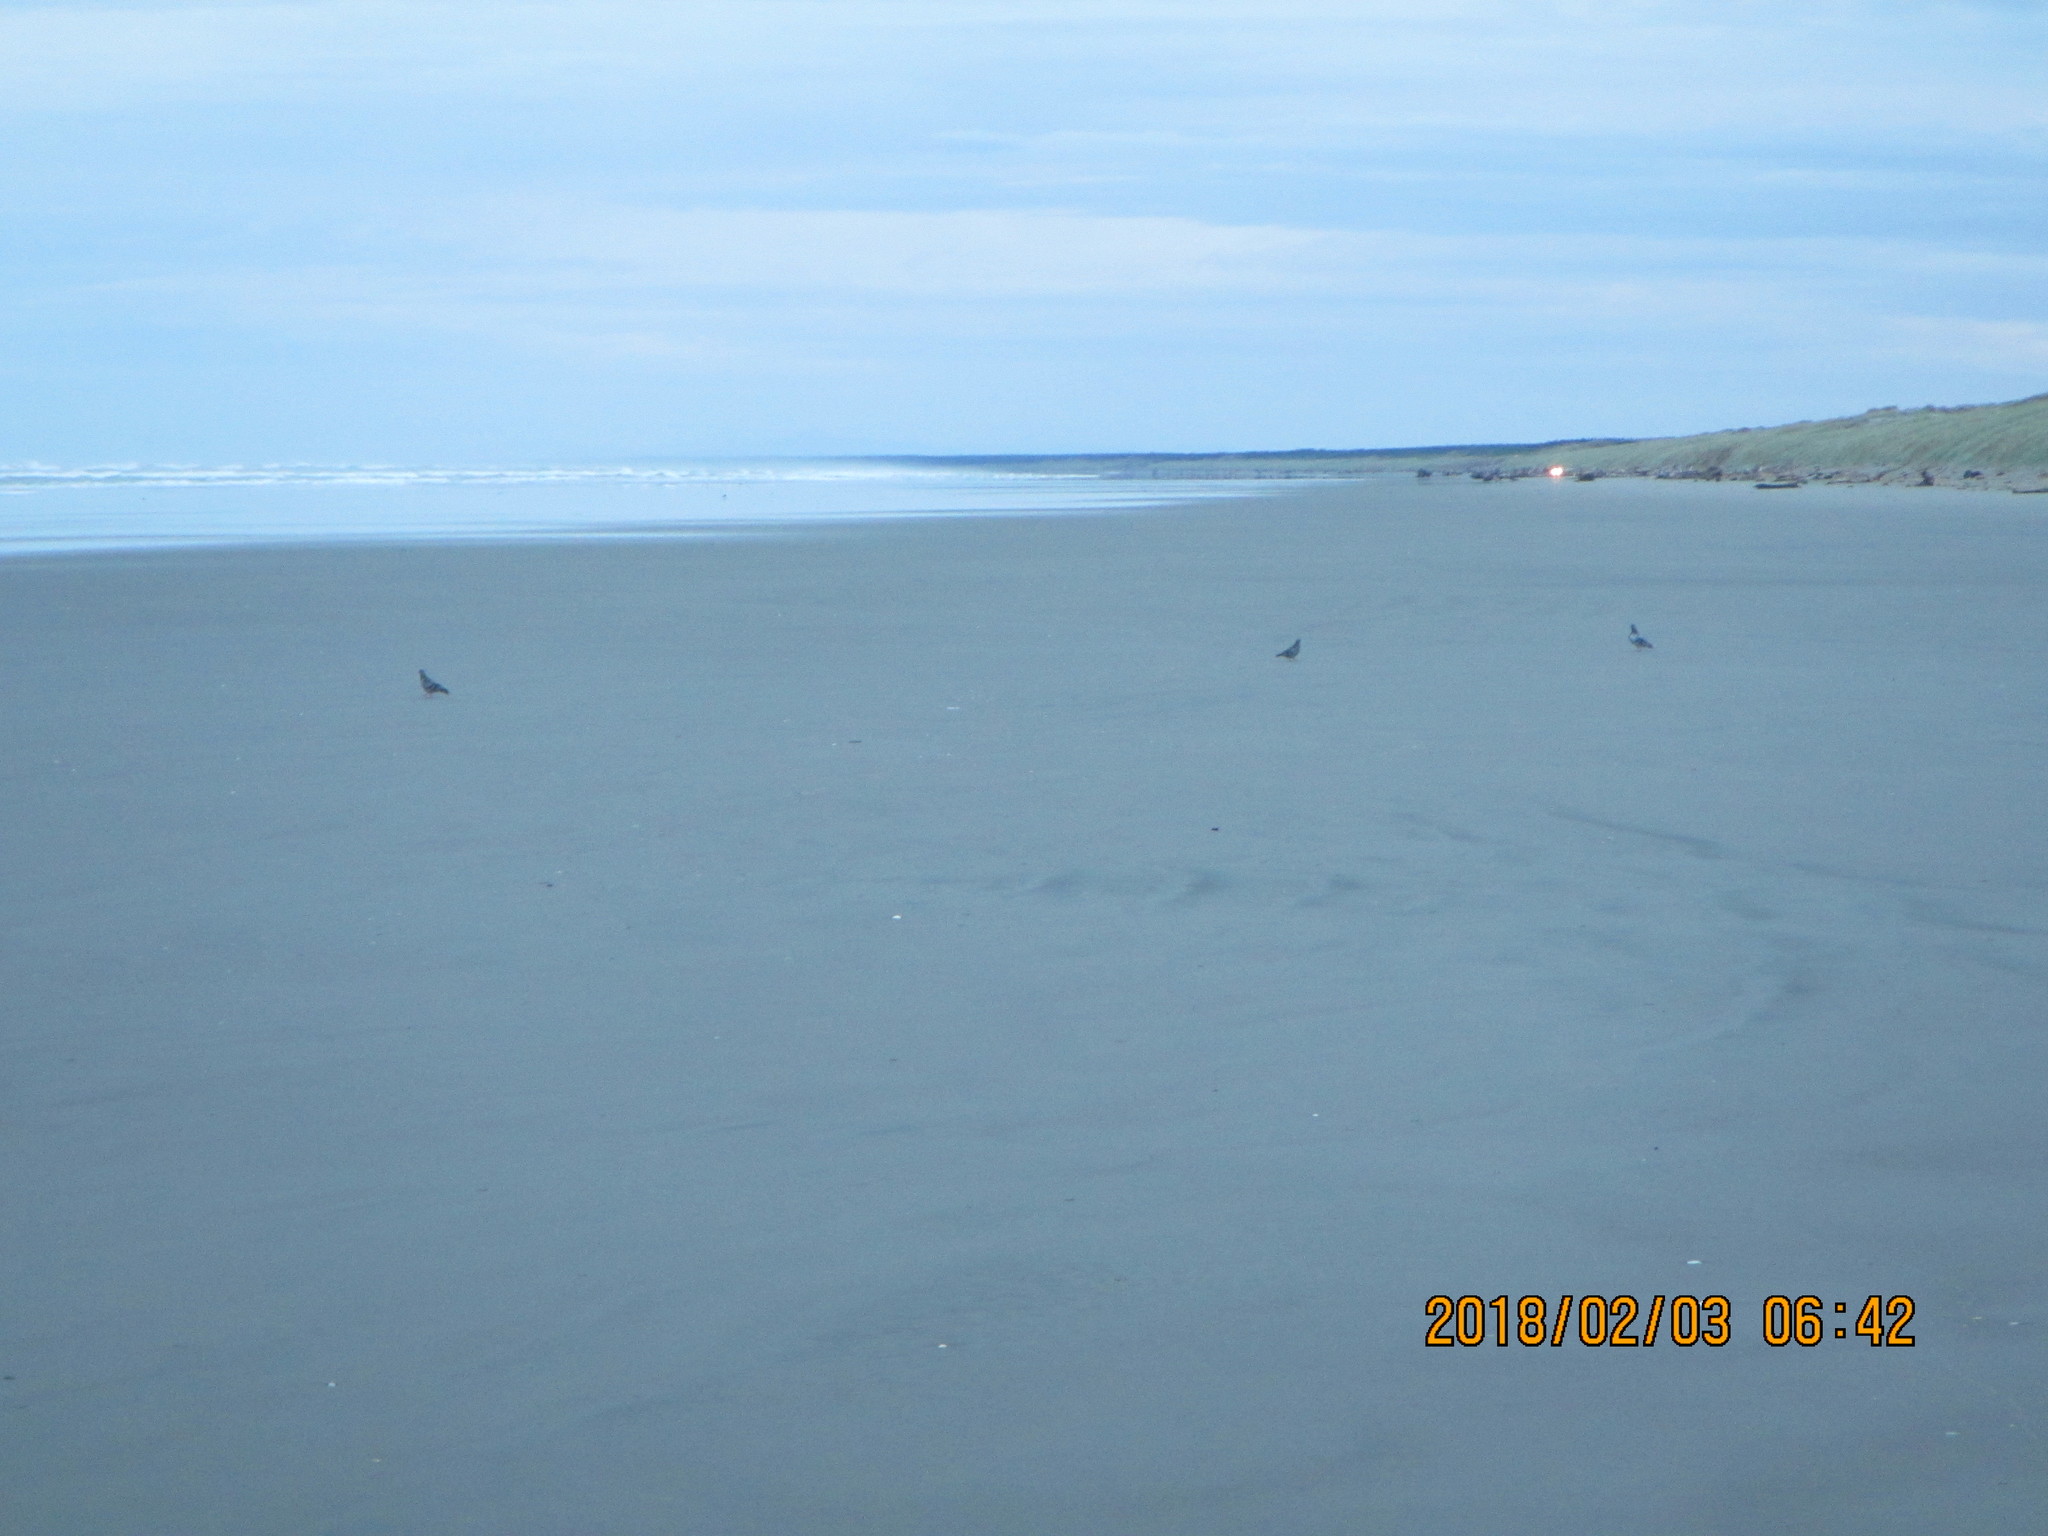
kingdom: Animalia
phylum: Chordata
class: Aves
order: Columbiformes
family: Columbidae
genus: Columba
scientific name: Columba livia
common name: Rock pigeon
